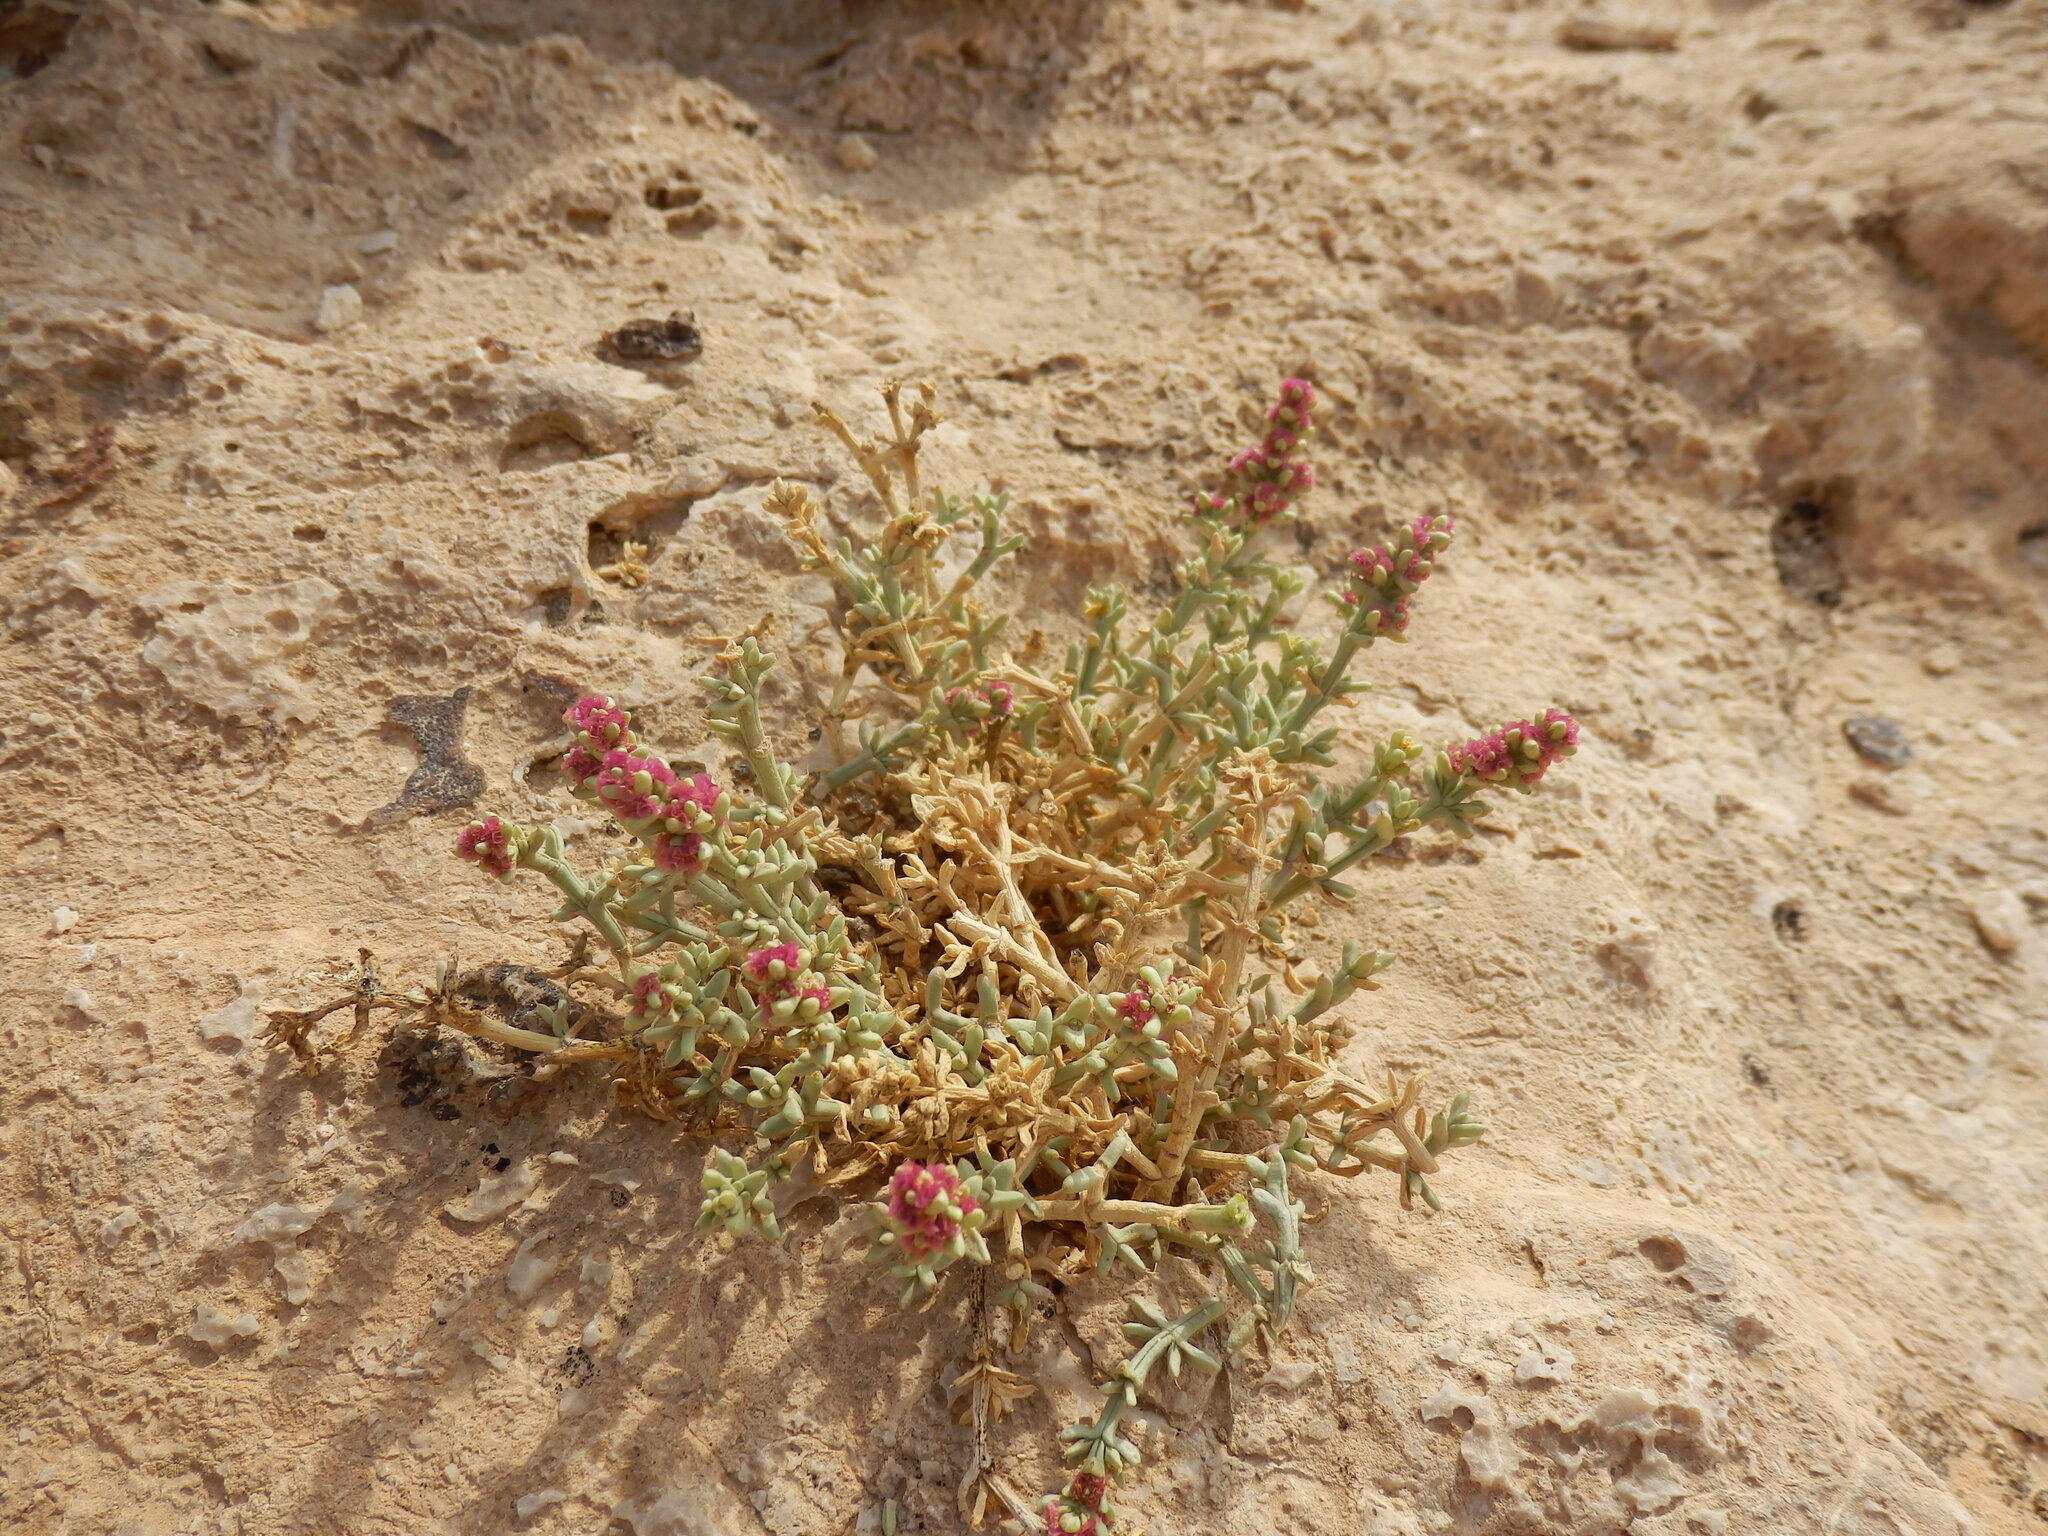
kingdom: Plantae
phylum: Tracheophyta
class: Magnoliopsida
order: Caryophyllales
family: Amaranthaceae
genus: Anabasis
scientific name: Anabasis setifera
